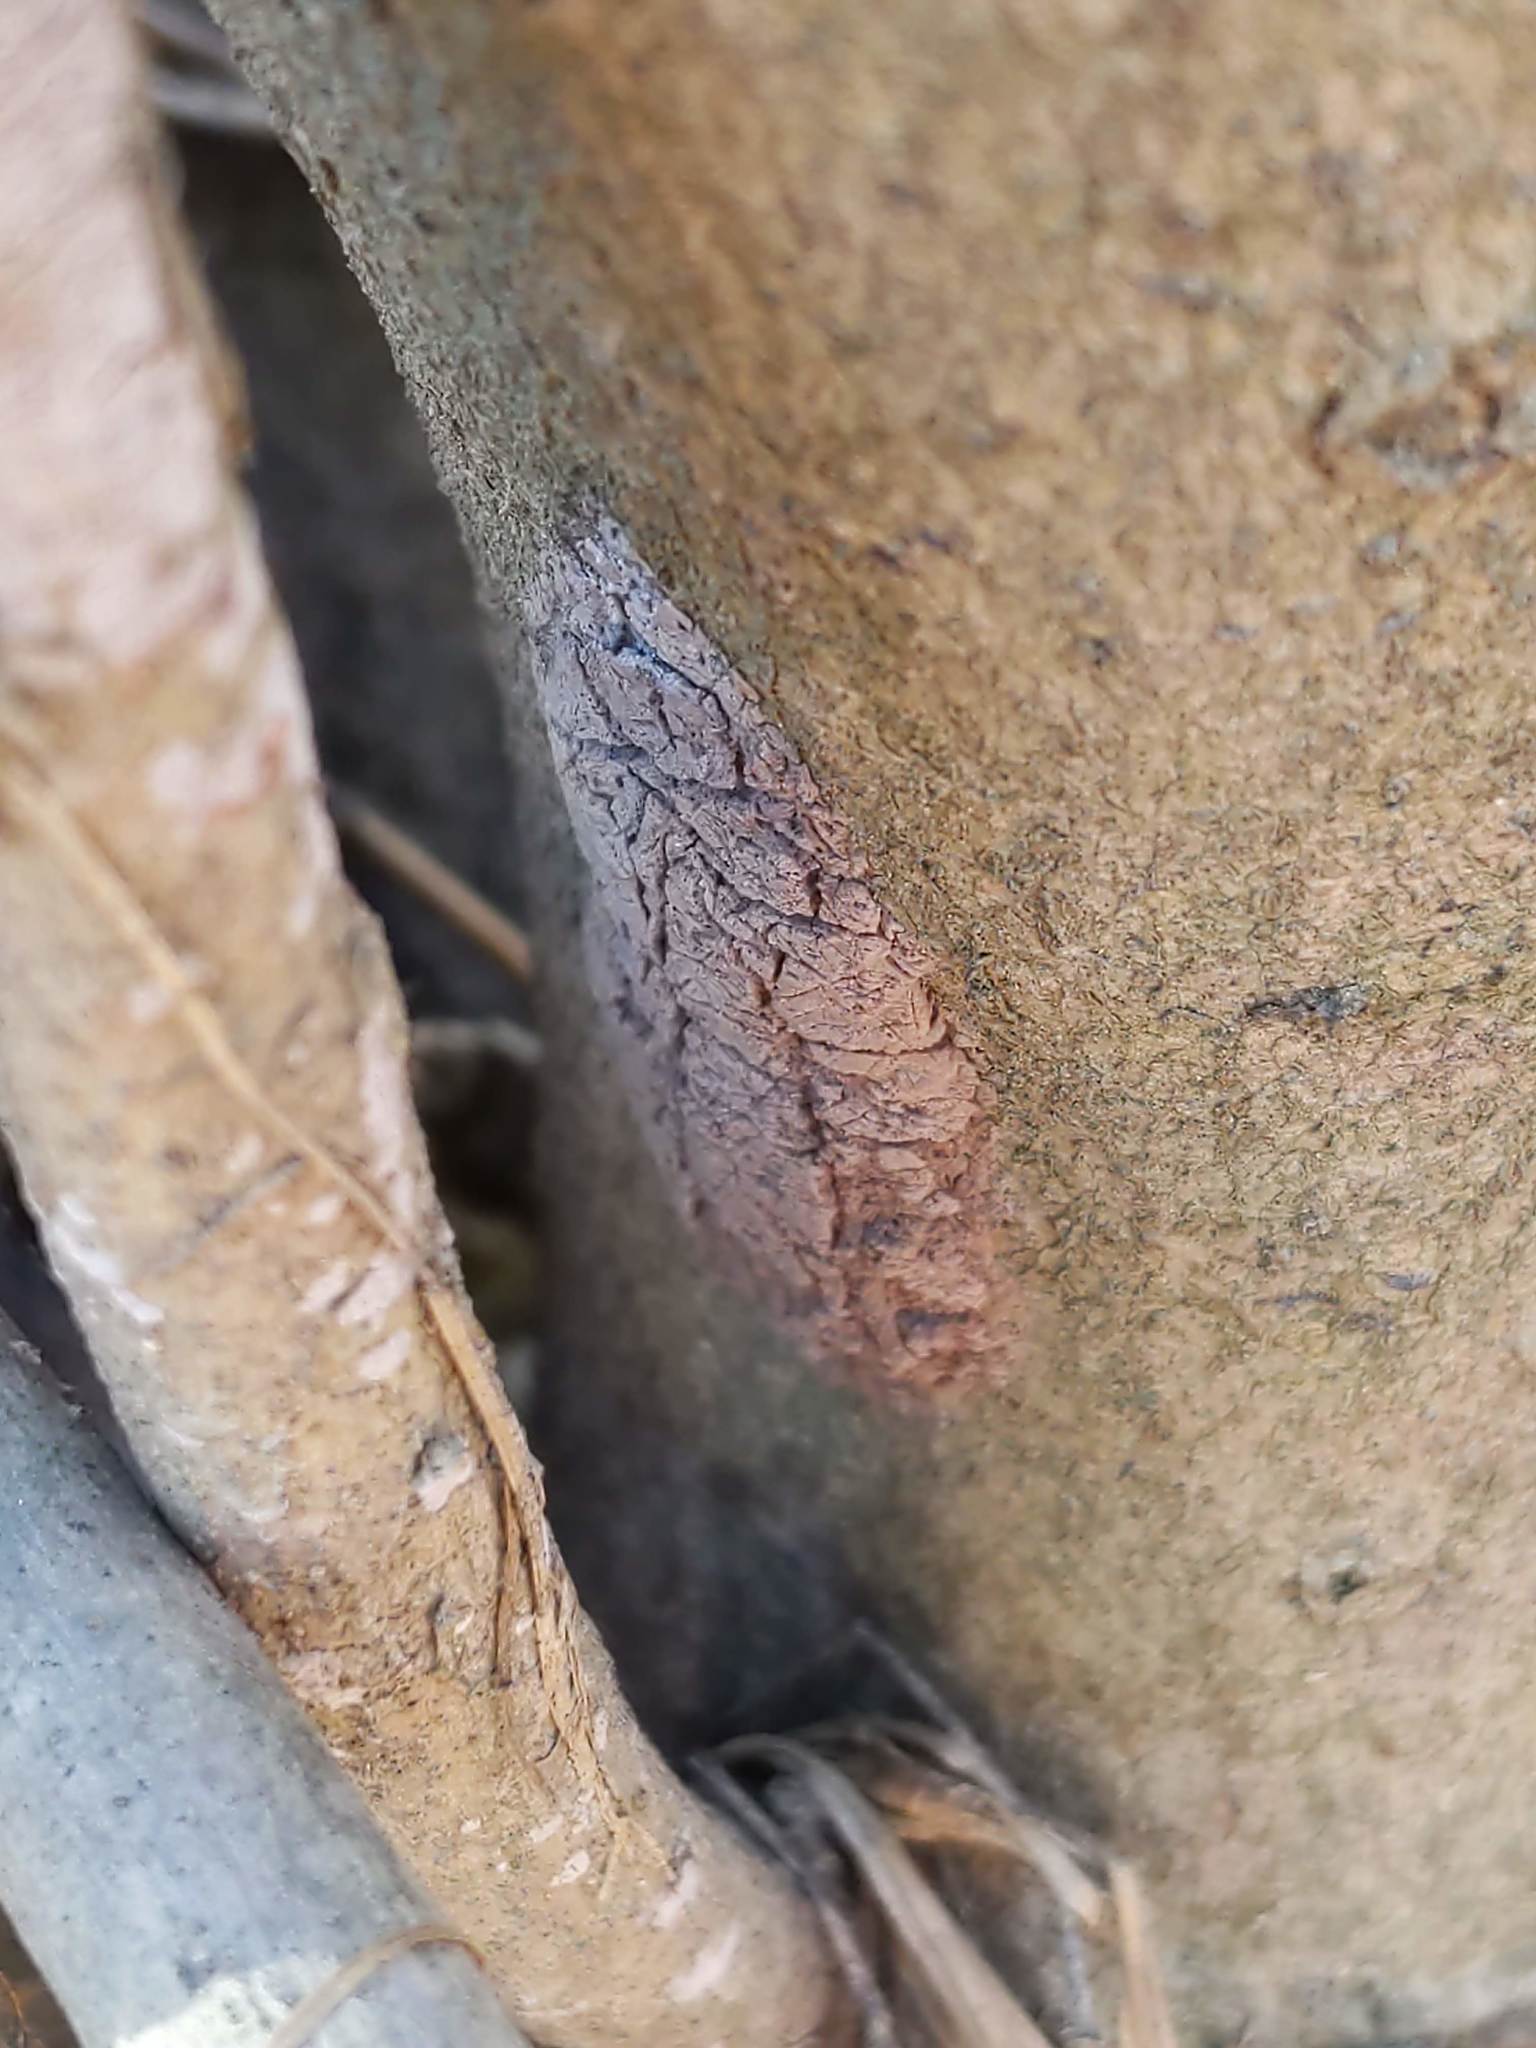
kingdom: Animalia
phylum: Arthropoda
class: Insecta
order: Hemiptera
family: Fulgoridae
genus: Lycorma
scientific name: Lycorma delicatula
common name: Spotted lanternfly
